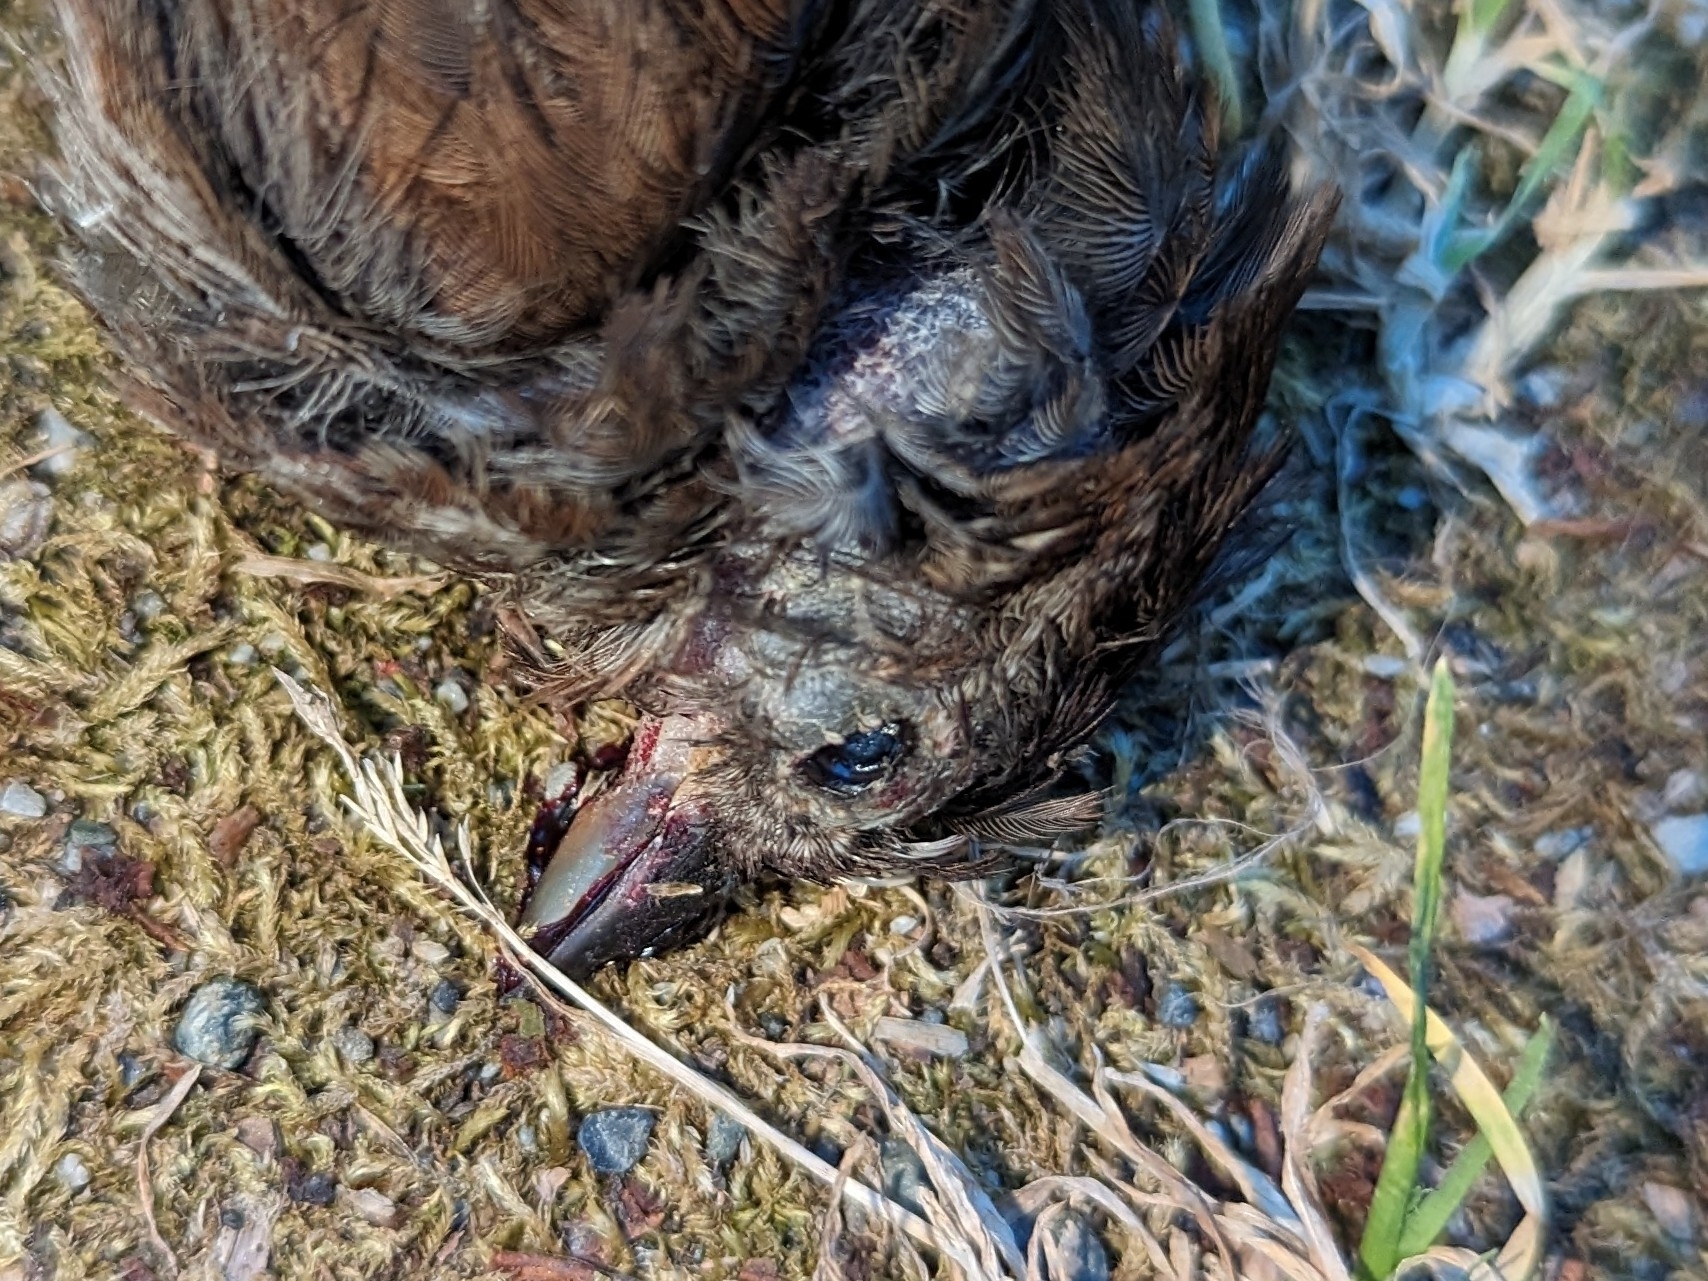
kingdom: Animalia
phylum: Chordata
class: Aves
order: Passeriformes
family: Passerellidae
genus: Melospiza
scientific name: Melospiza melodia
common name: Song sparrow
